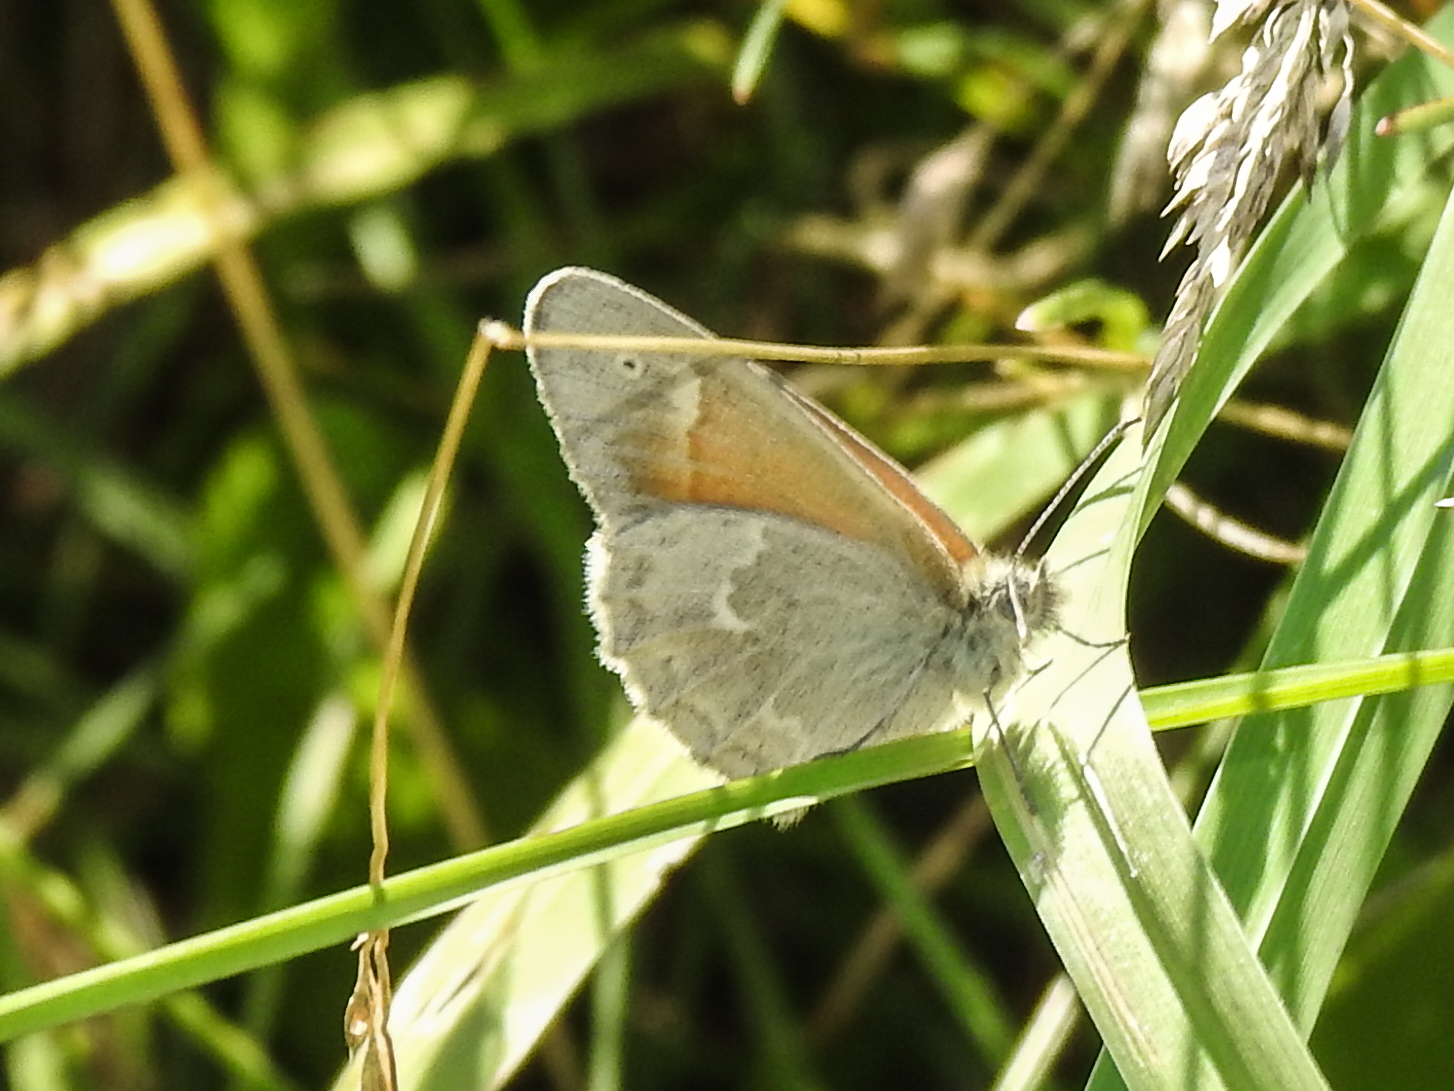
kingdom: Animalia
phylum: Arthropoda
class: Insecta
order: Lepidoptera
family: Nymphalidae
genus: Coenonympha
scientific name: Coenonympha california
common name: Common ringlet
